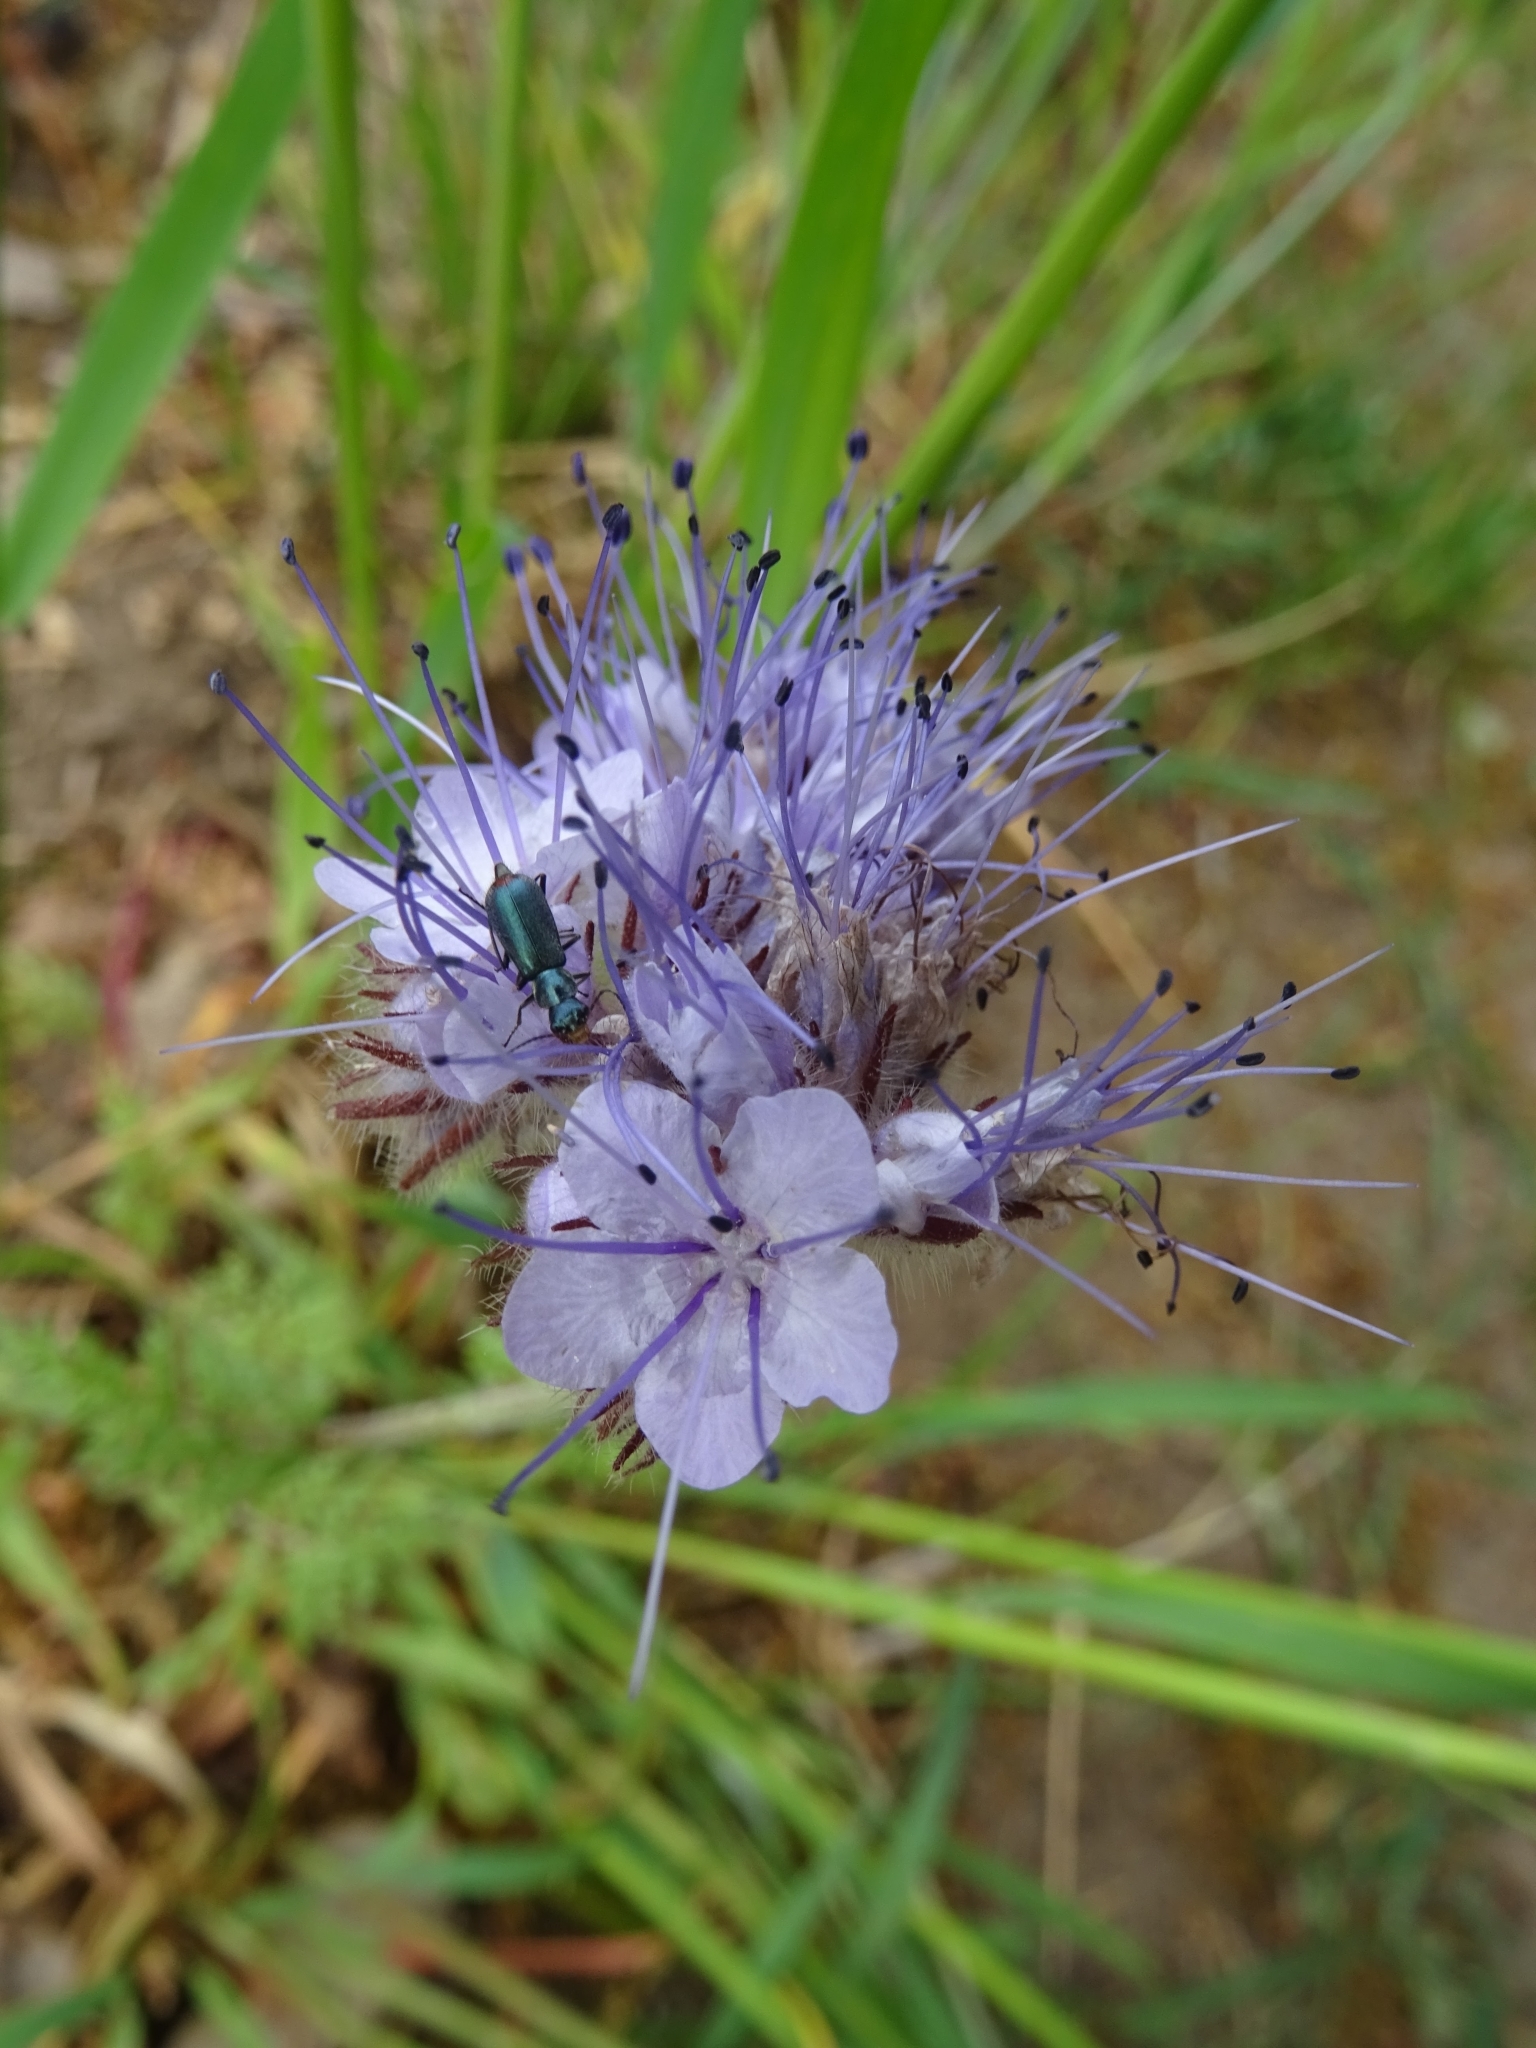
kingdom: Plantae
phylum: Tracheophyta
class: Magnoliopsida
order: Boraginales
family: Hydrophyllaceae
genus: Phacelia
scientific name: Phacelia tanacetifolia
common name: Phacelia
